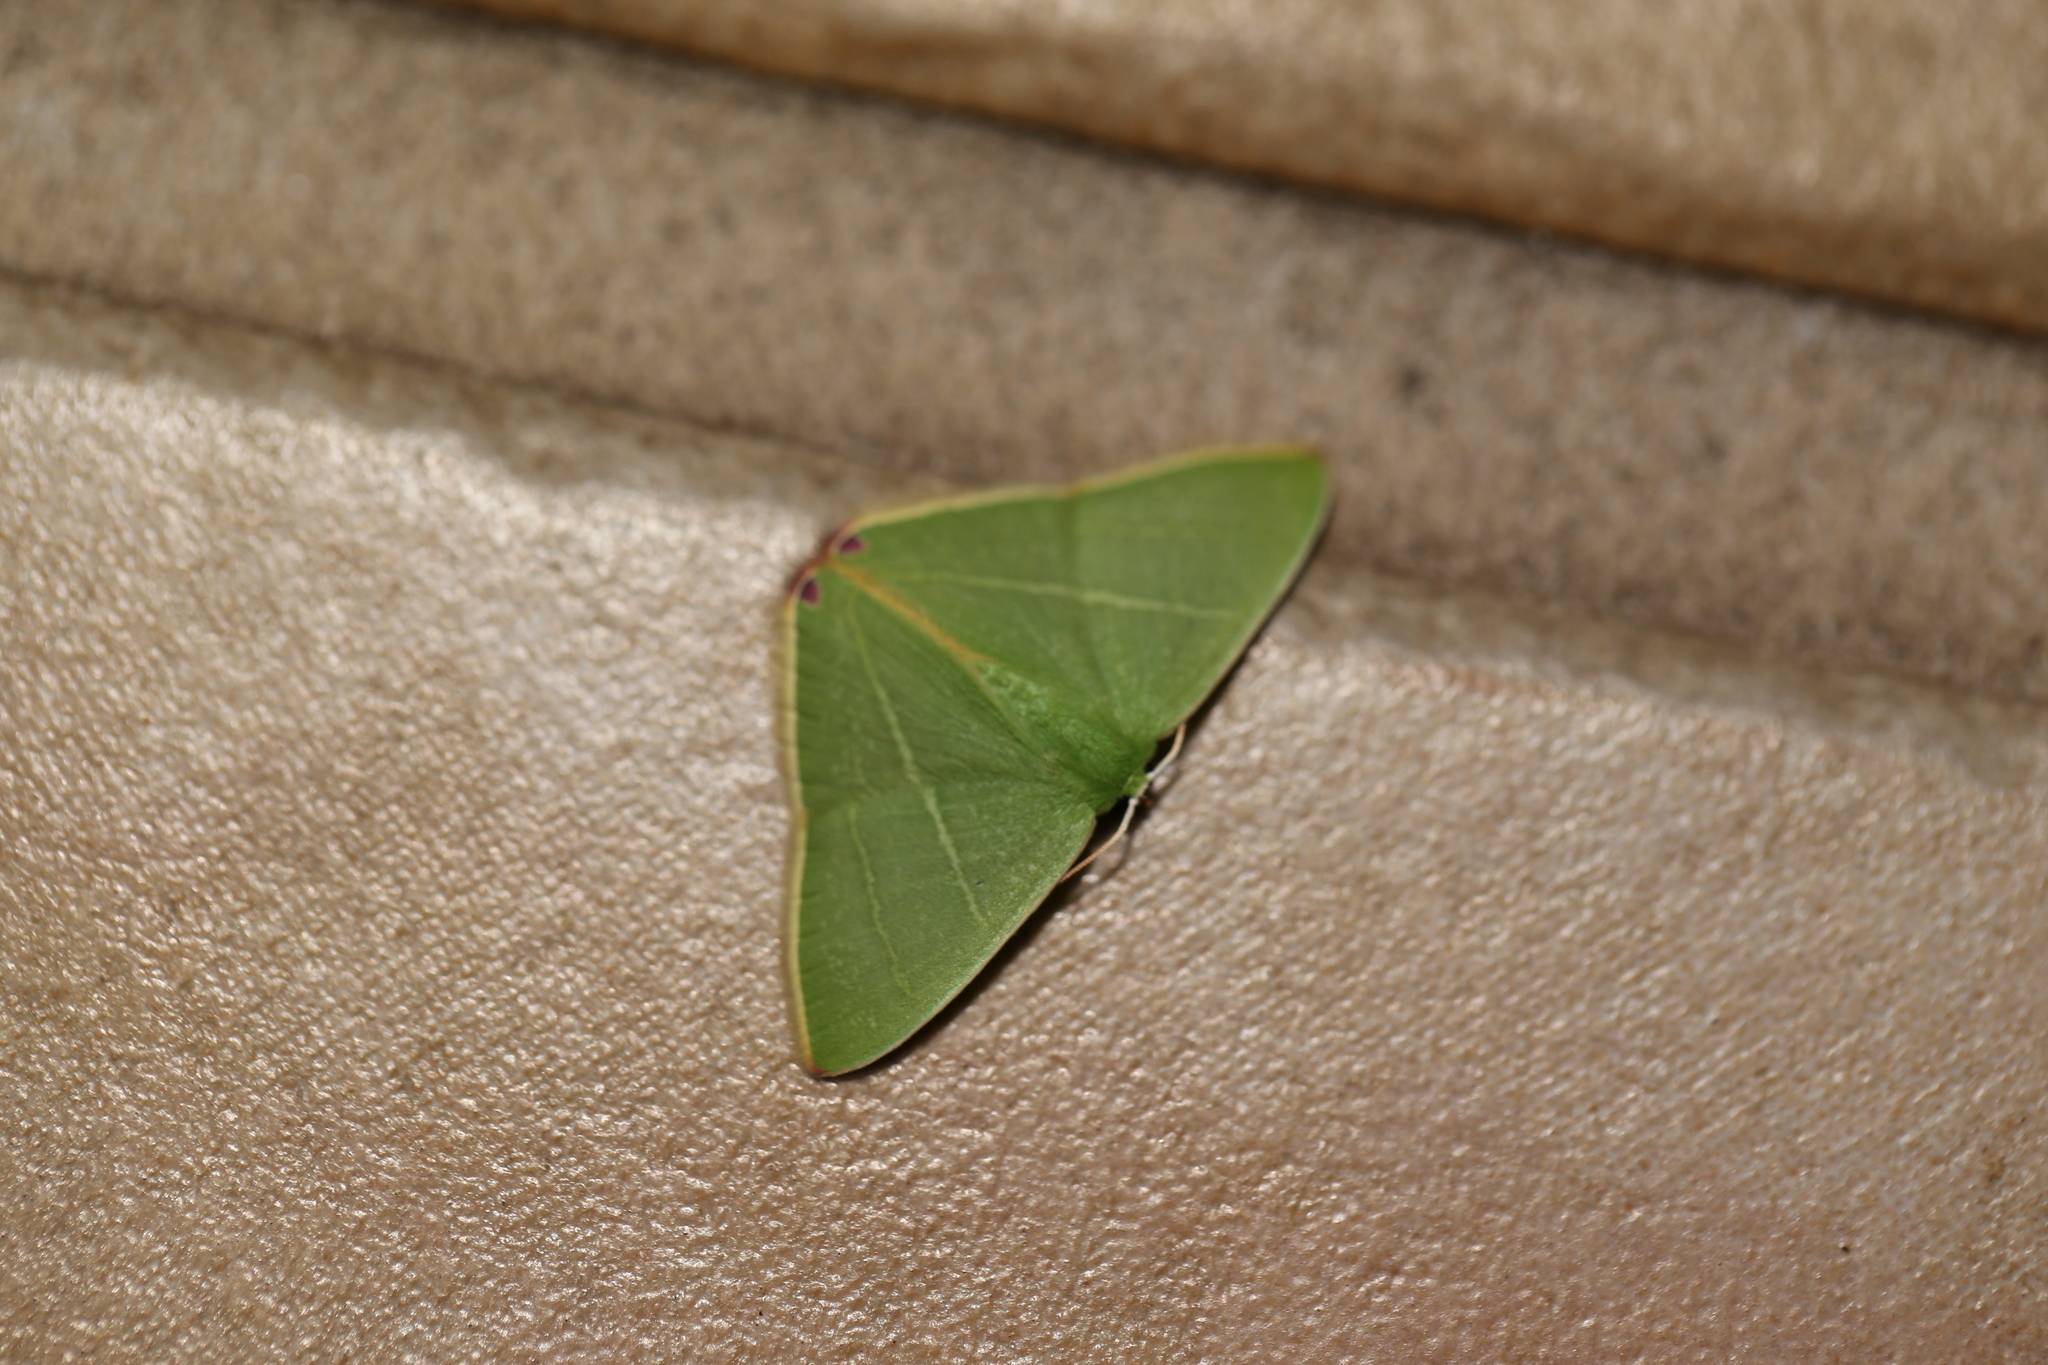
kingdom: Animalia
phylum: Arthropoda
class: Insecta
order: Lepidoptera
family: Geometridae
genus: Urolitha
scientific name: Urolitha bipunctifera
